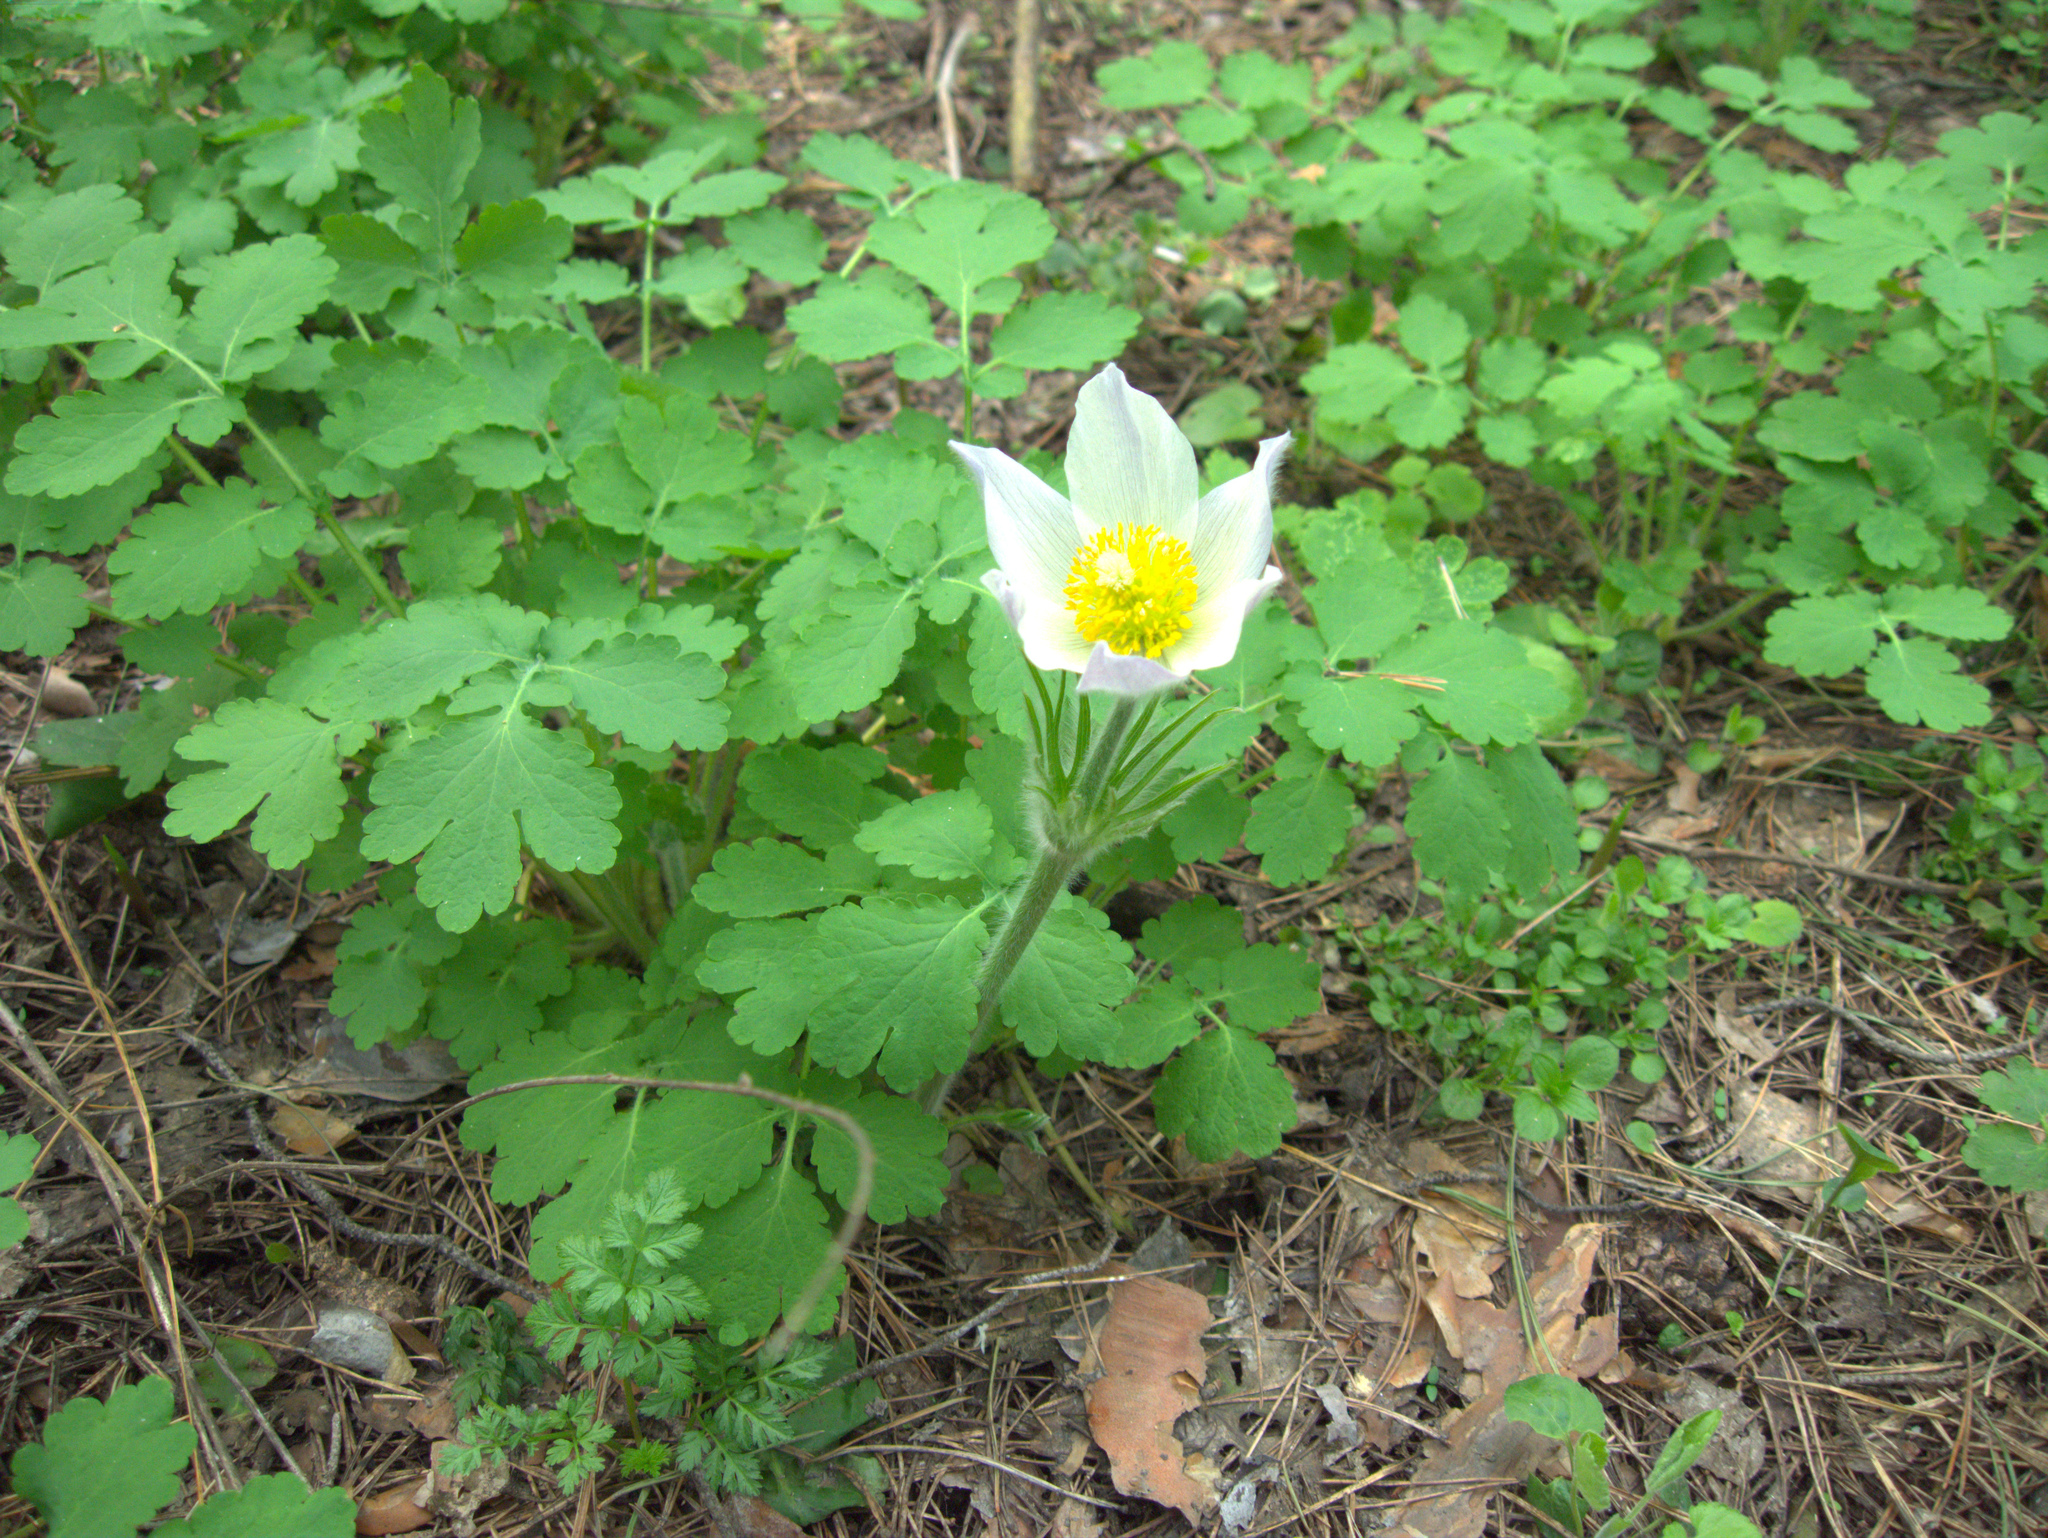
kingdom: Plantae
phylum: Tracheophyta
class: Magnoliopsida
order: Ranunculales
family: Ranunculaceae
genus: Pulsatilla
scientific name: Pulsatilla patens
